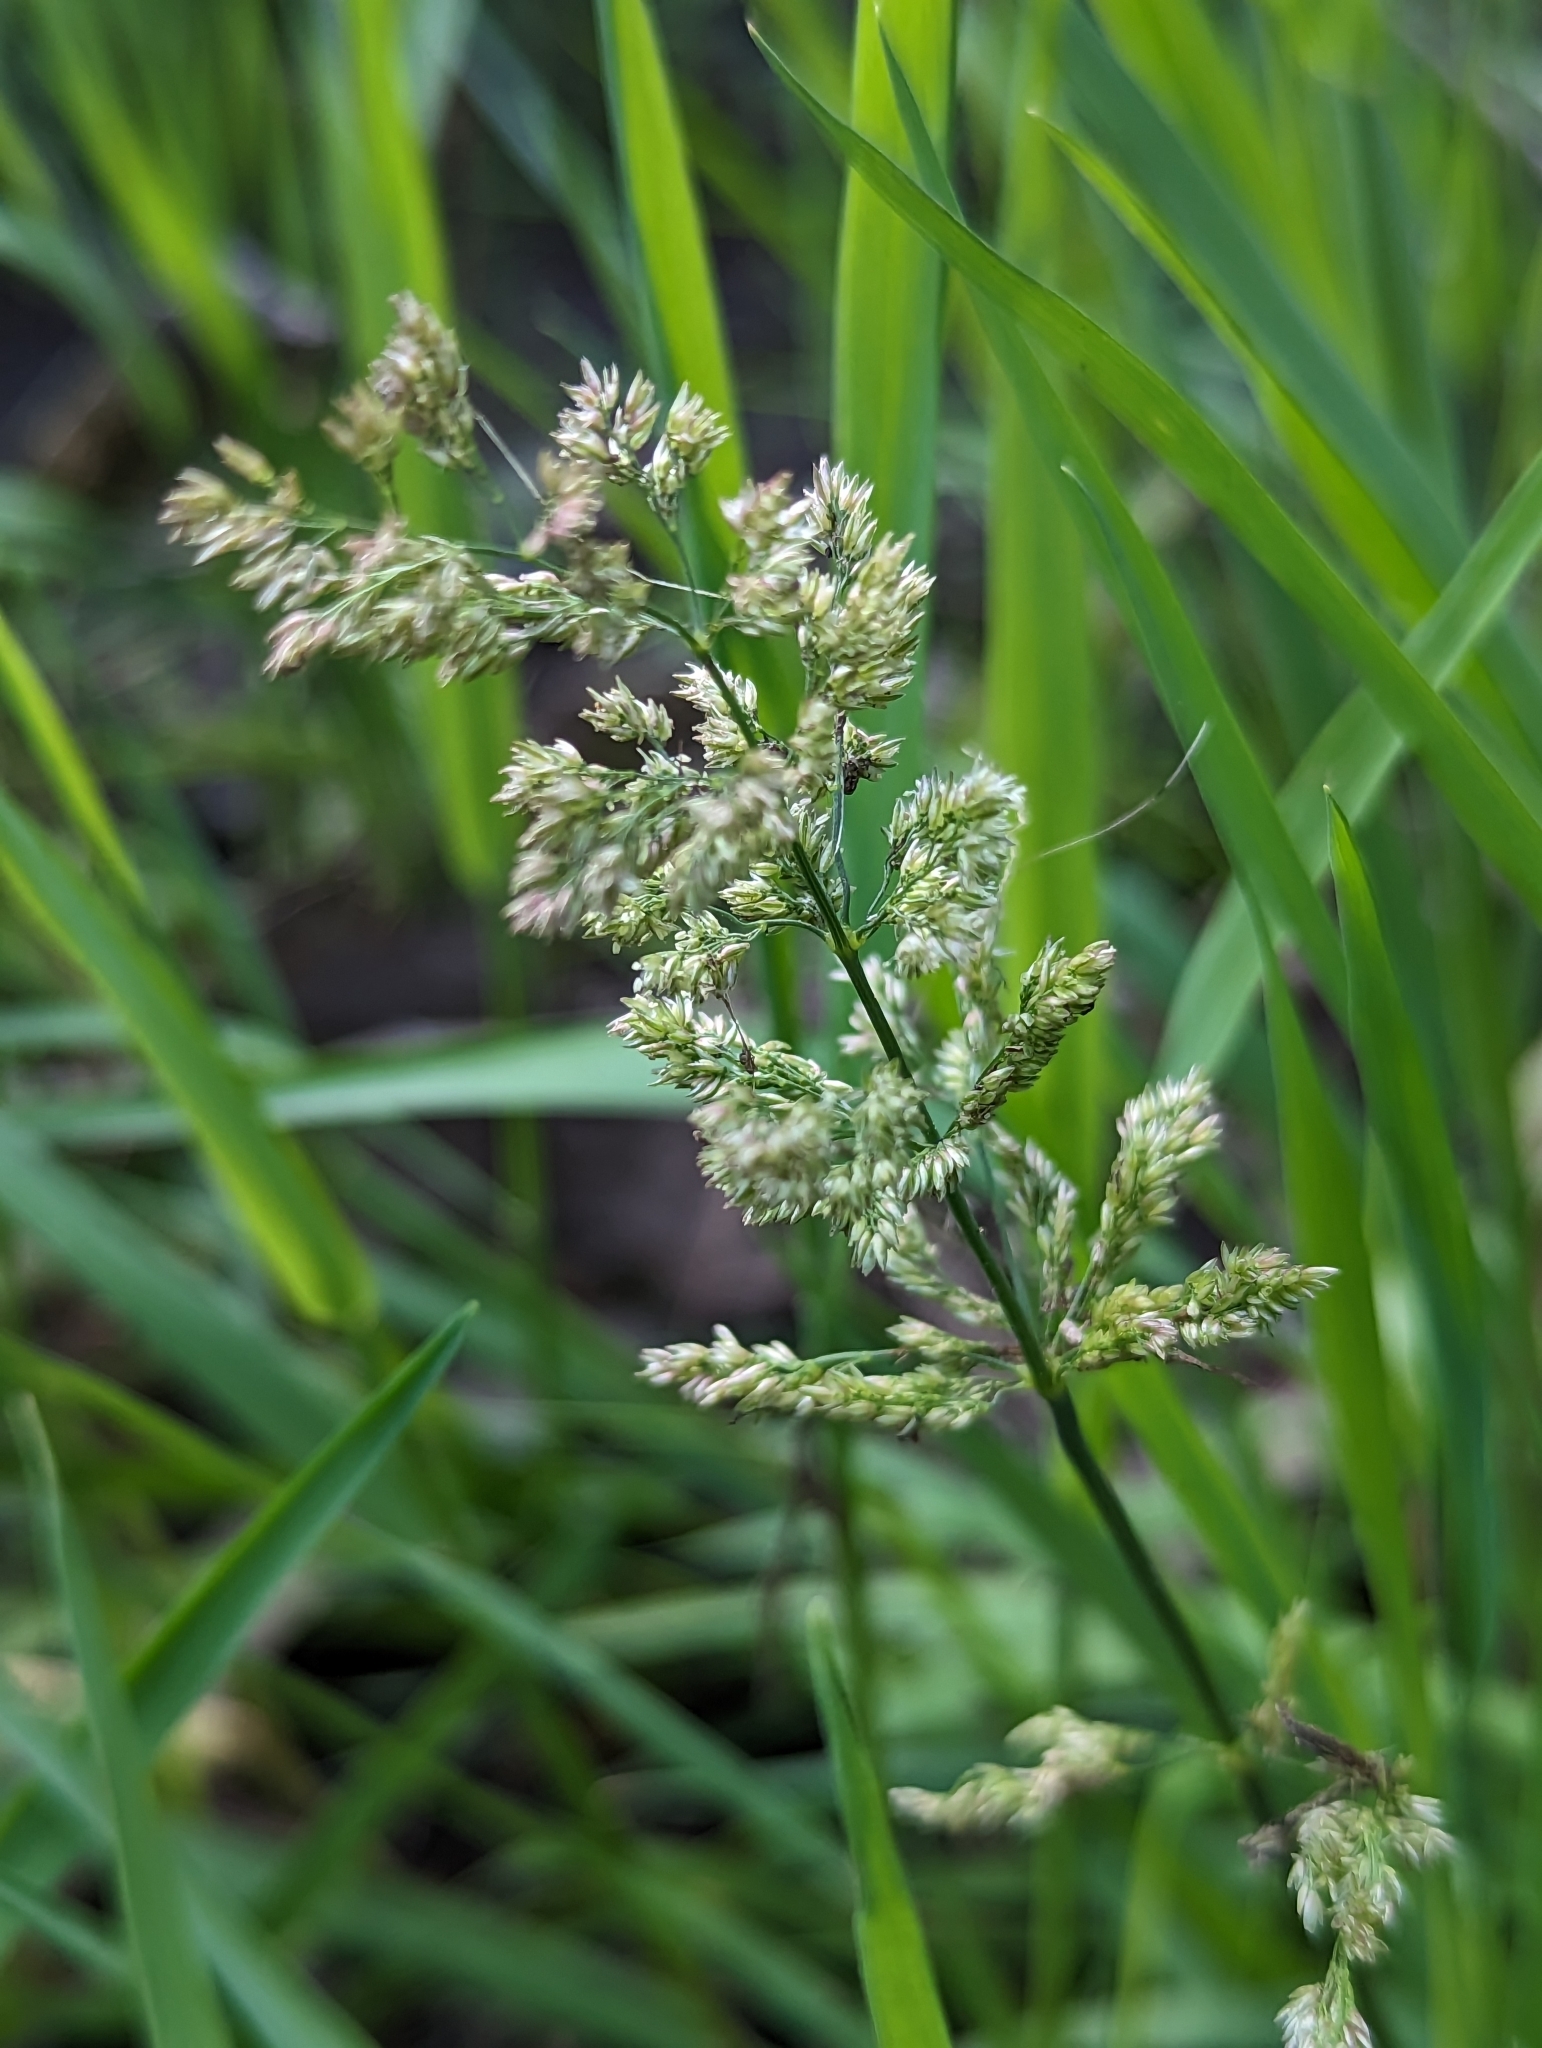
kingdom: Plantae
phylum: Tracheophyta
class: Liliopsida
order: Poales
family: Poaceae
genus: Polypogon
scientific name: Polypogon viridis
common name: Water bent
